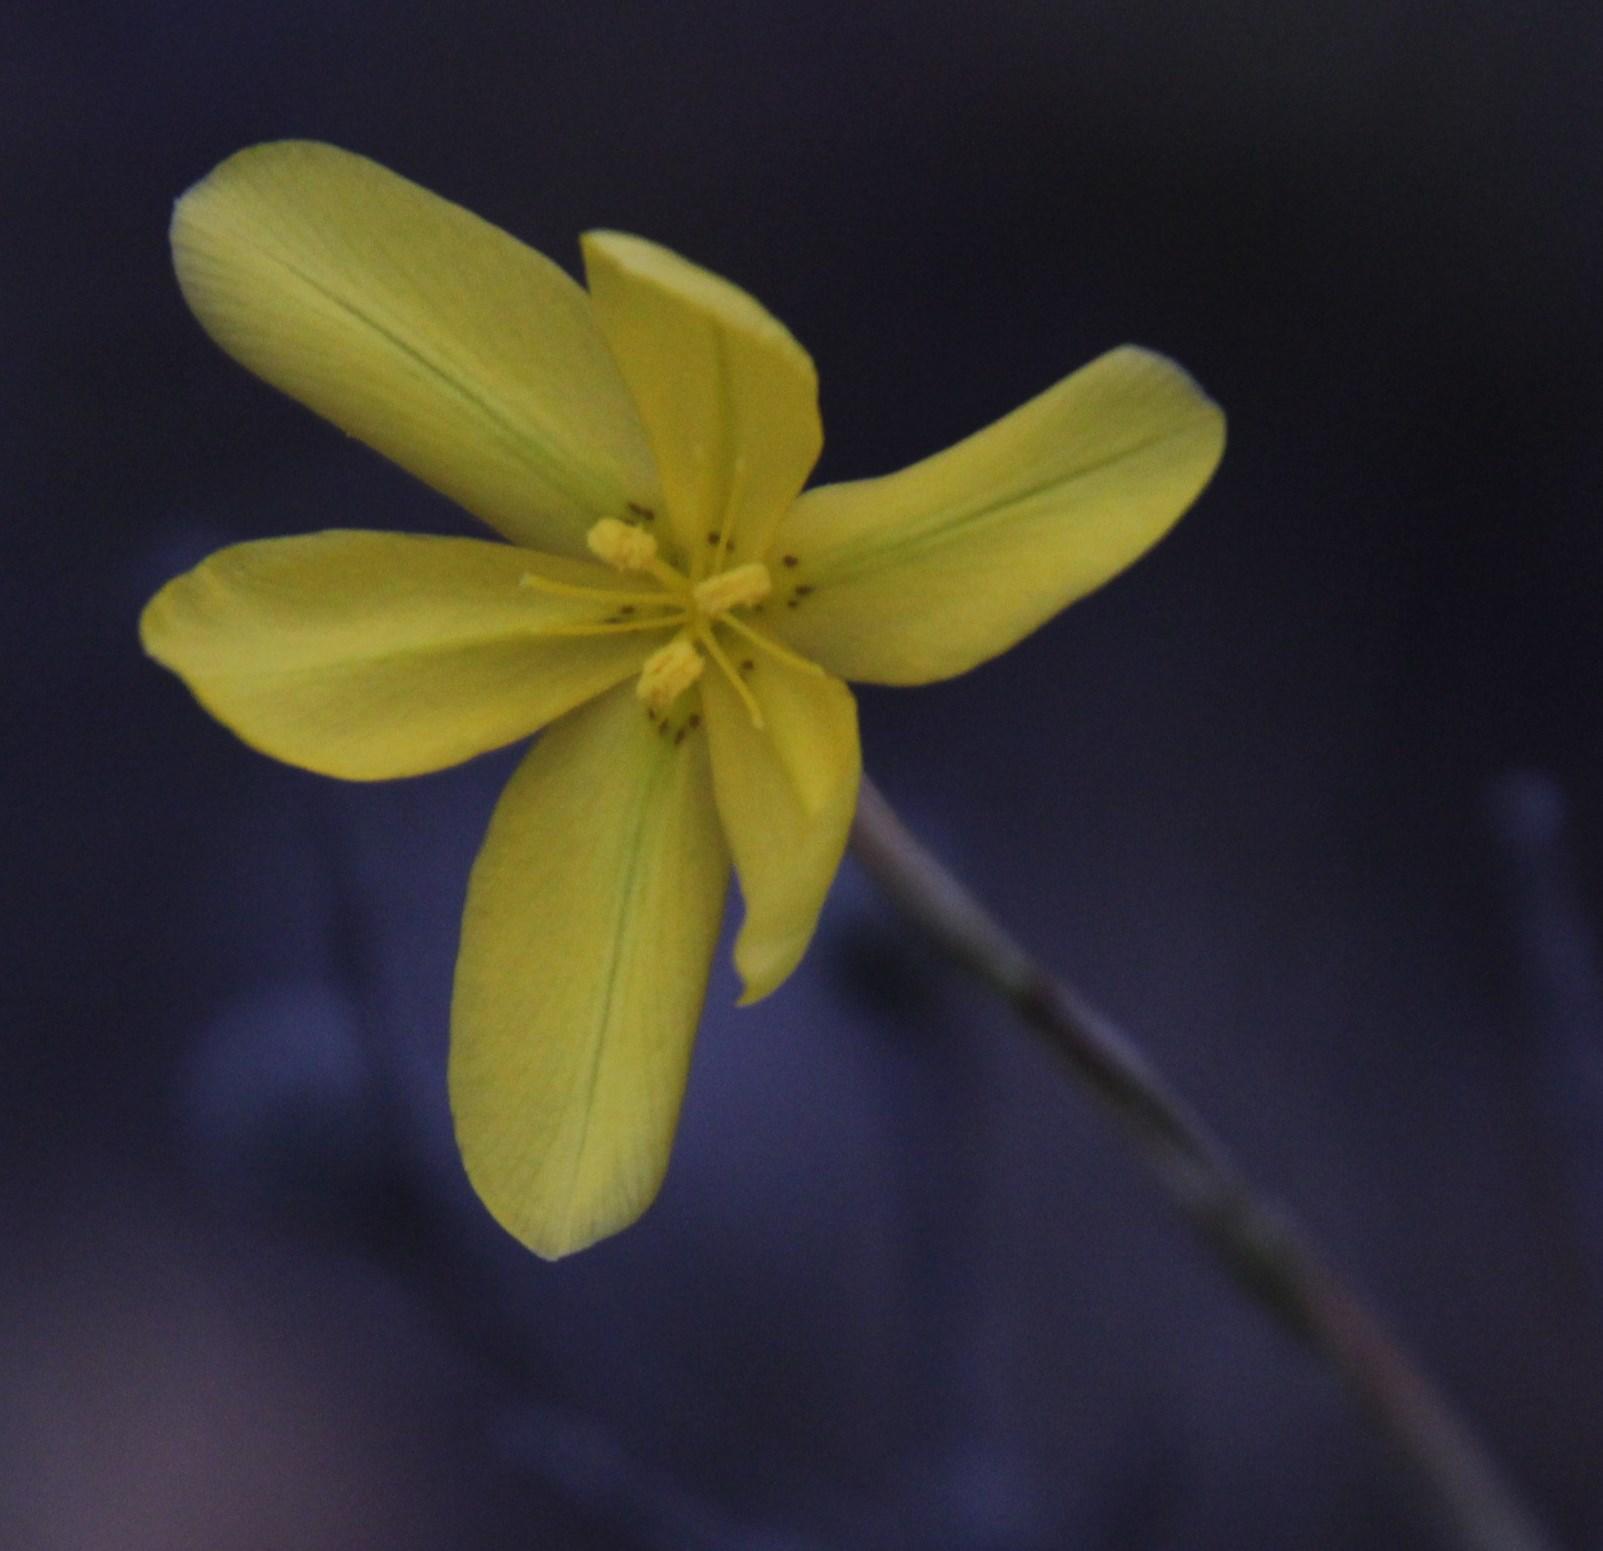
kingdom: Plantae
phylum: Tracheophyta
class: Liliopsida
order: Asparagales
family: Iridaceae
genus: Moraea
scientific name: Moraea lewisiae
